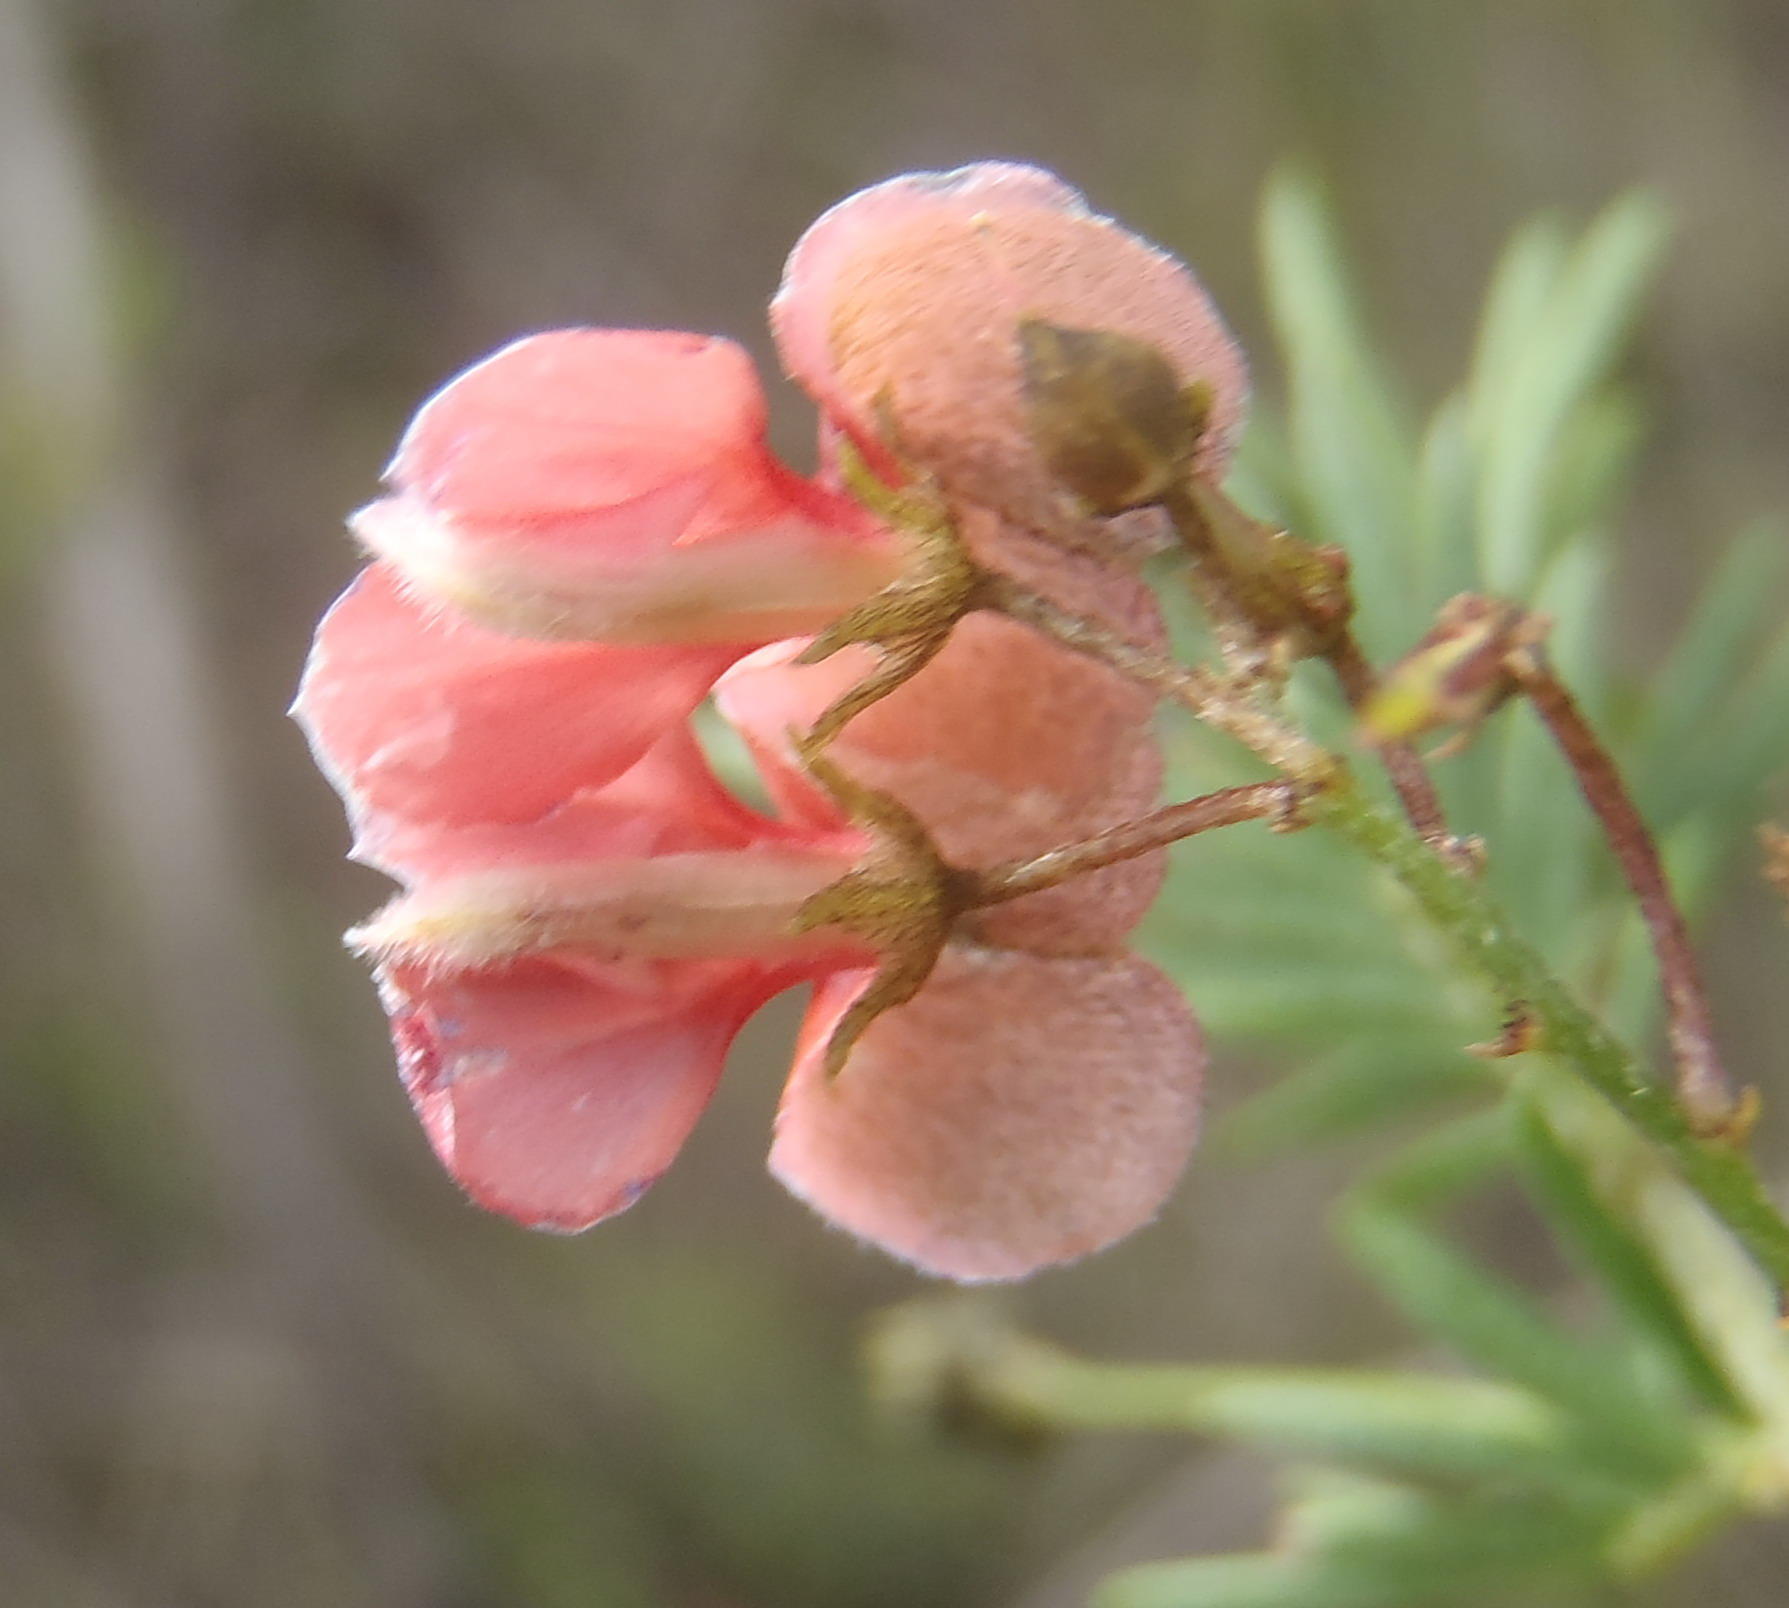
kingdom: Plantae
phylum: Tracheophyta
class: Magnoliopsida
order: Fabales
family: Fabaceae
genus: Indigofera
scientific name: Indigofera verrucosa
